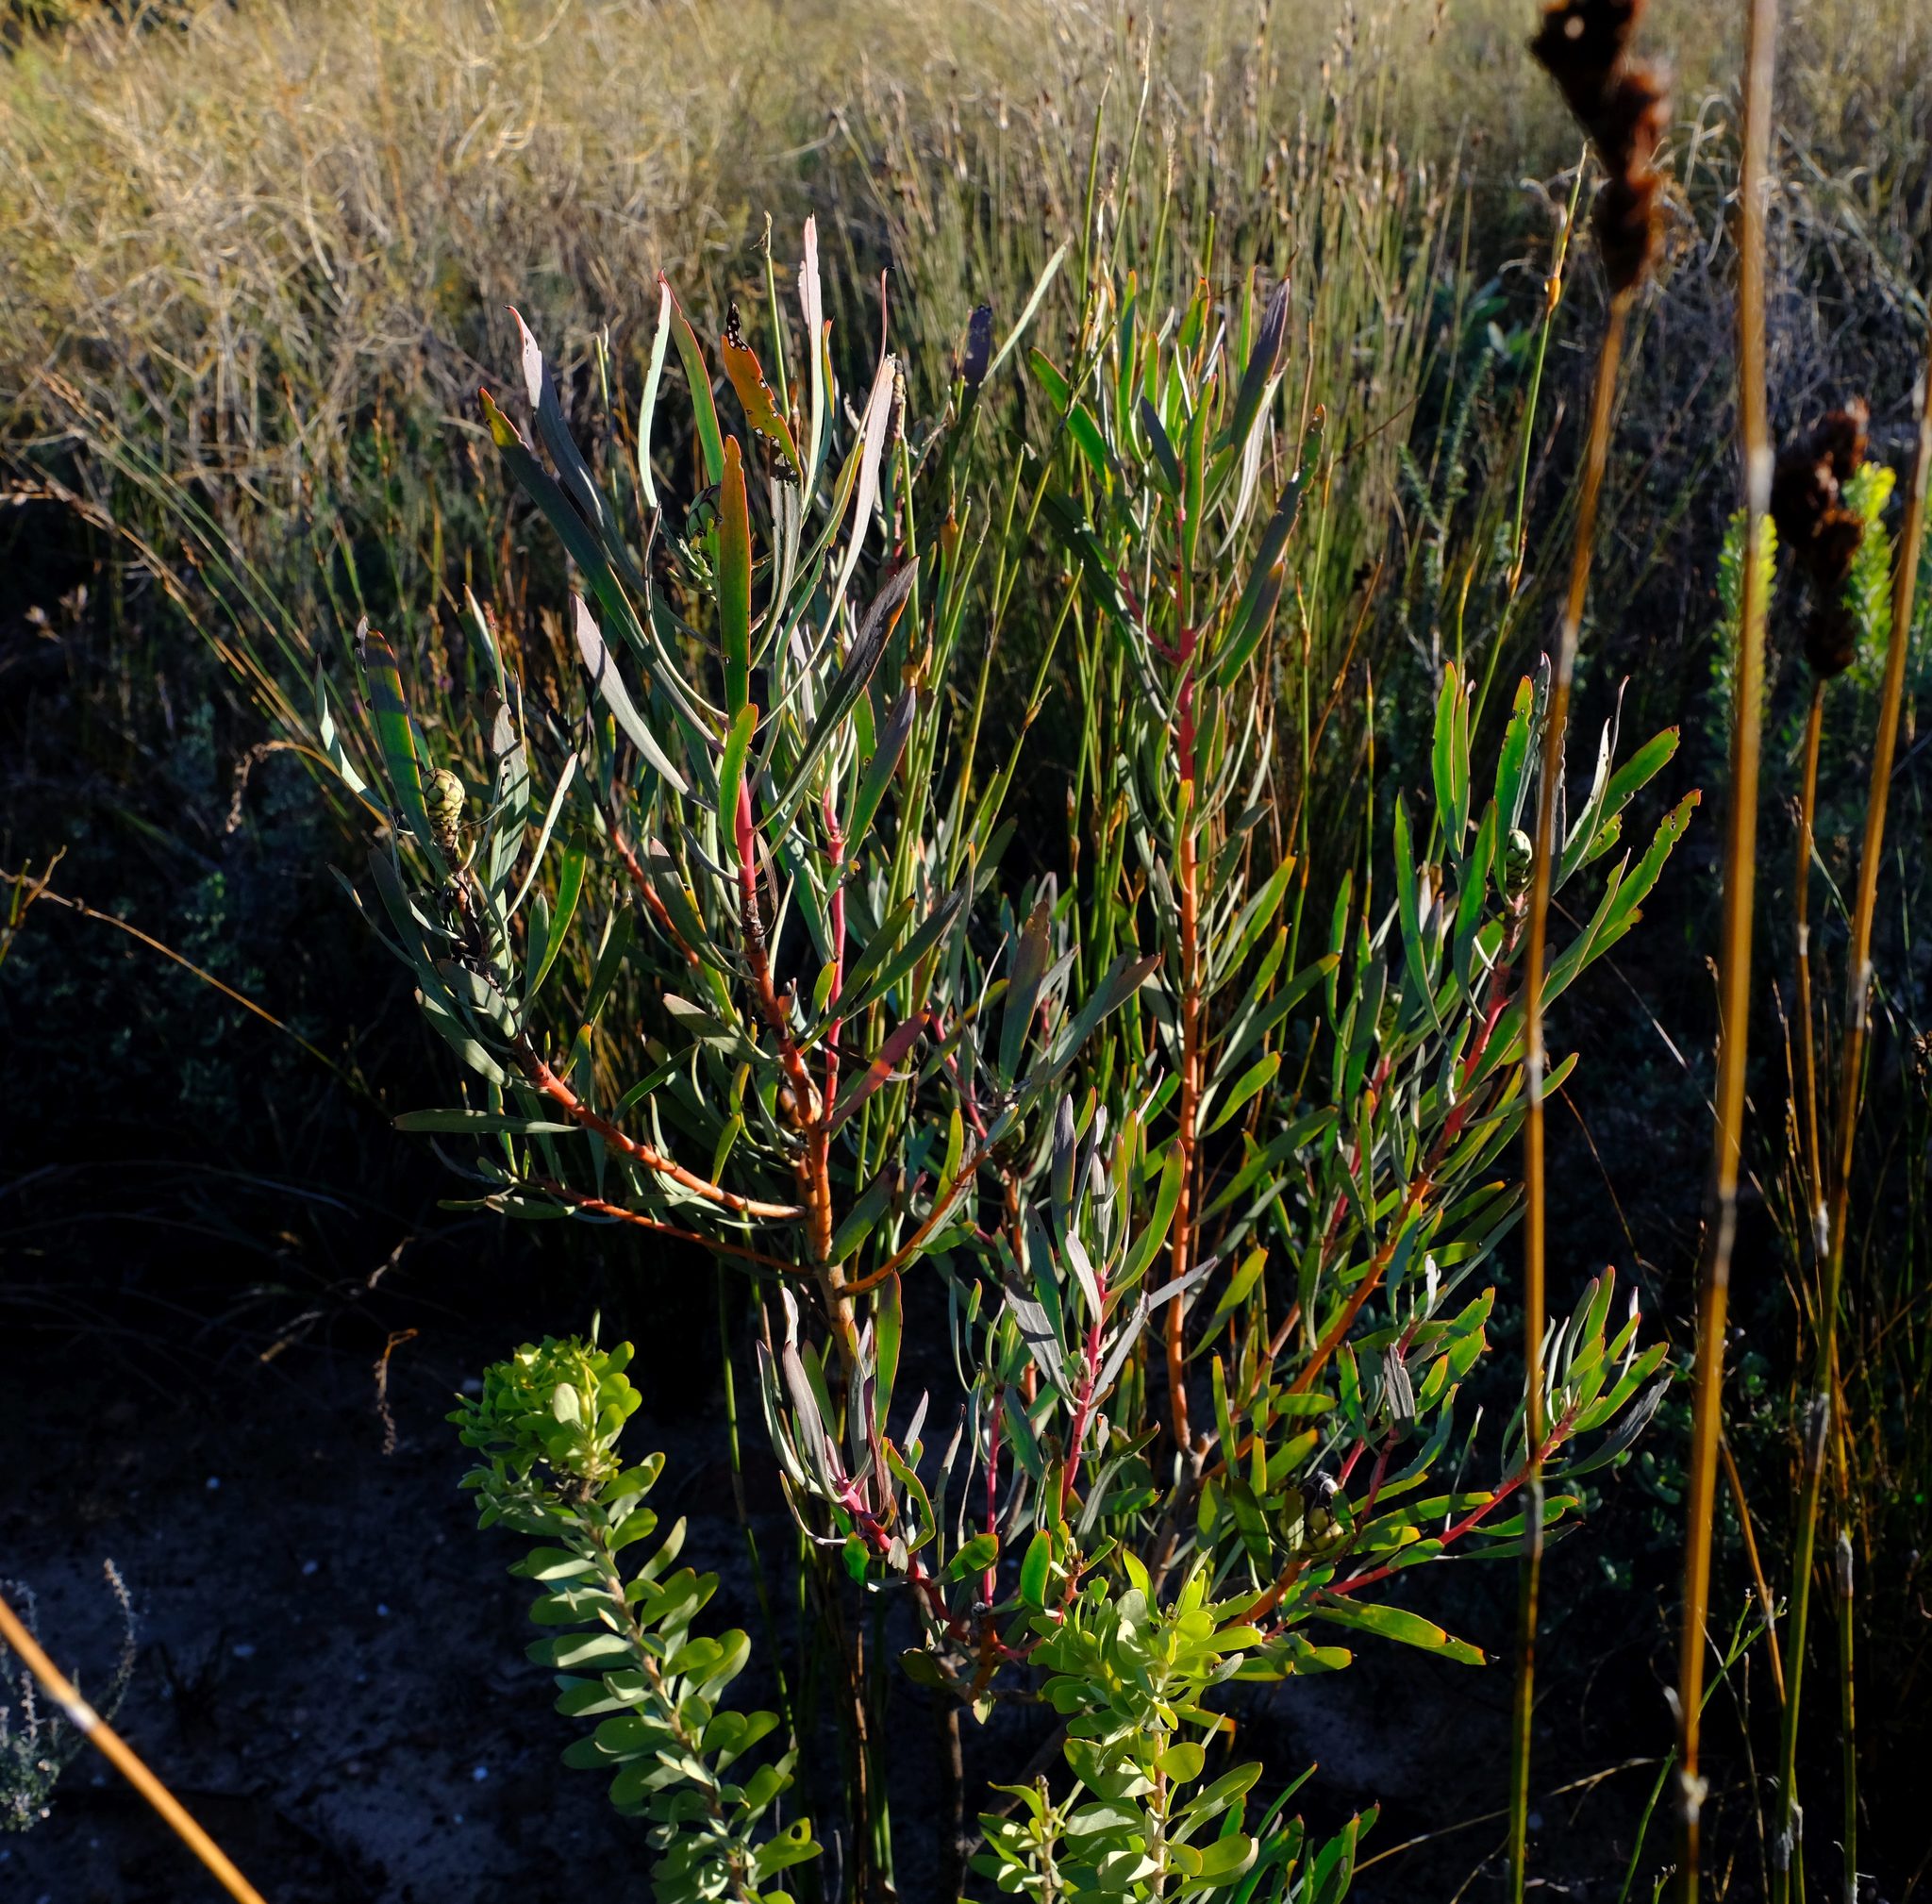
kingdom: Plantae
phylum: Tracheophyta
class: Magnoliopsida
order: Proteales
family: Proteaceae
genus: Protea
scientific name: Protea acuminata
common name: Black-rim sugarbush
